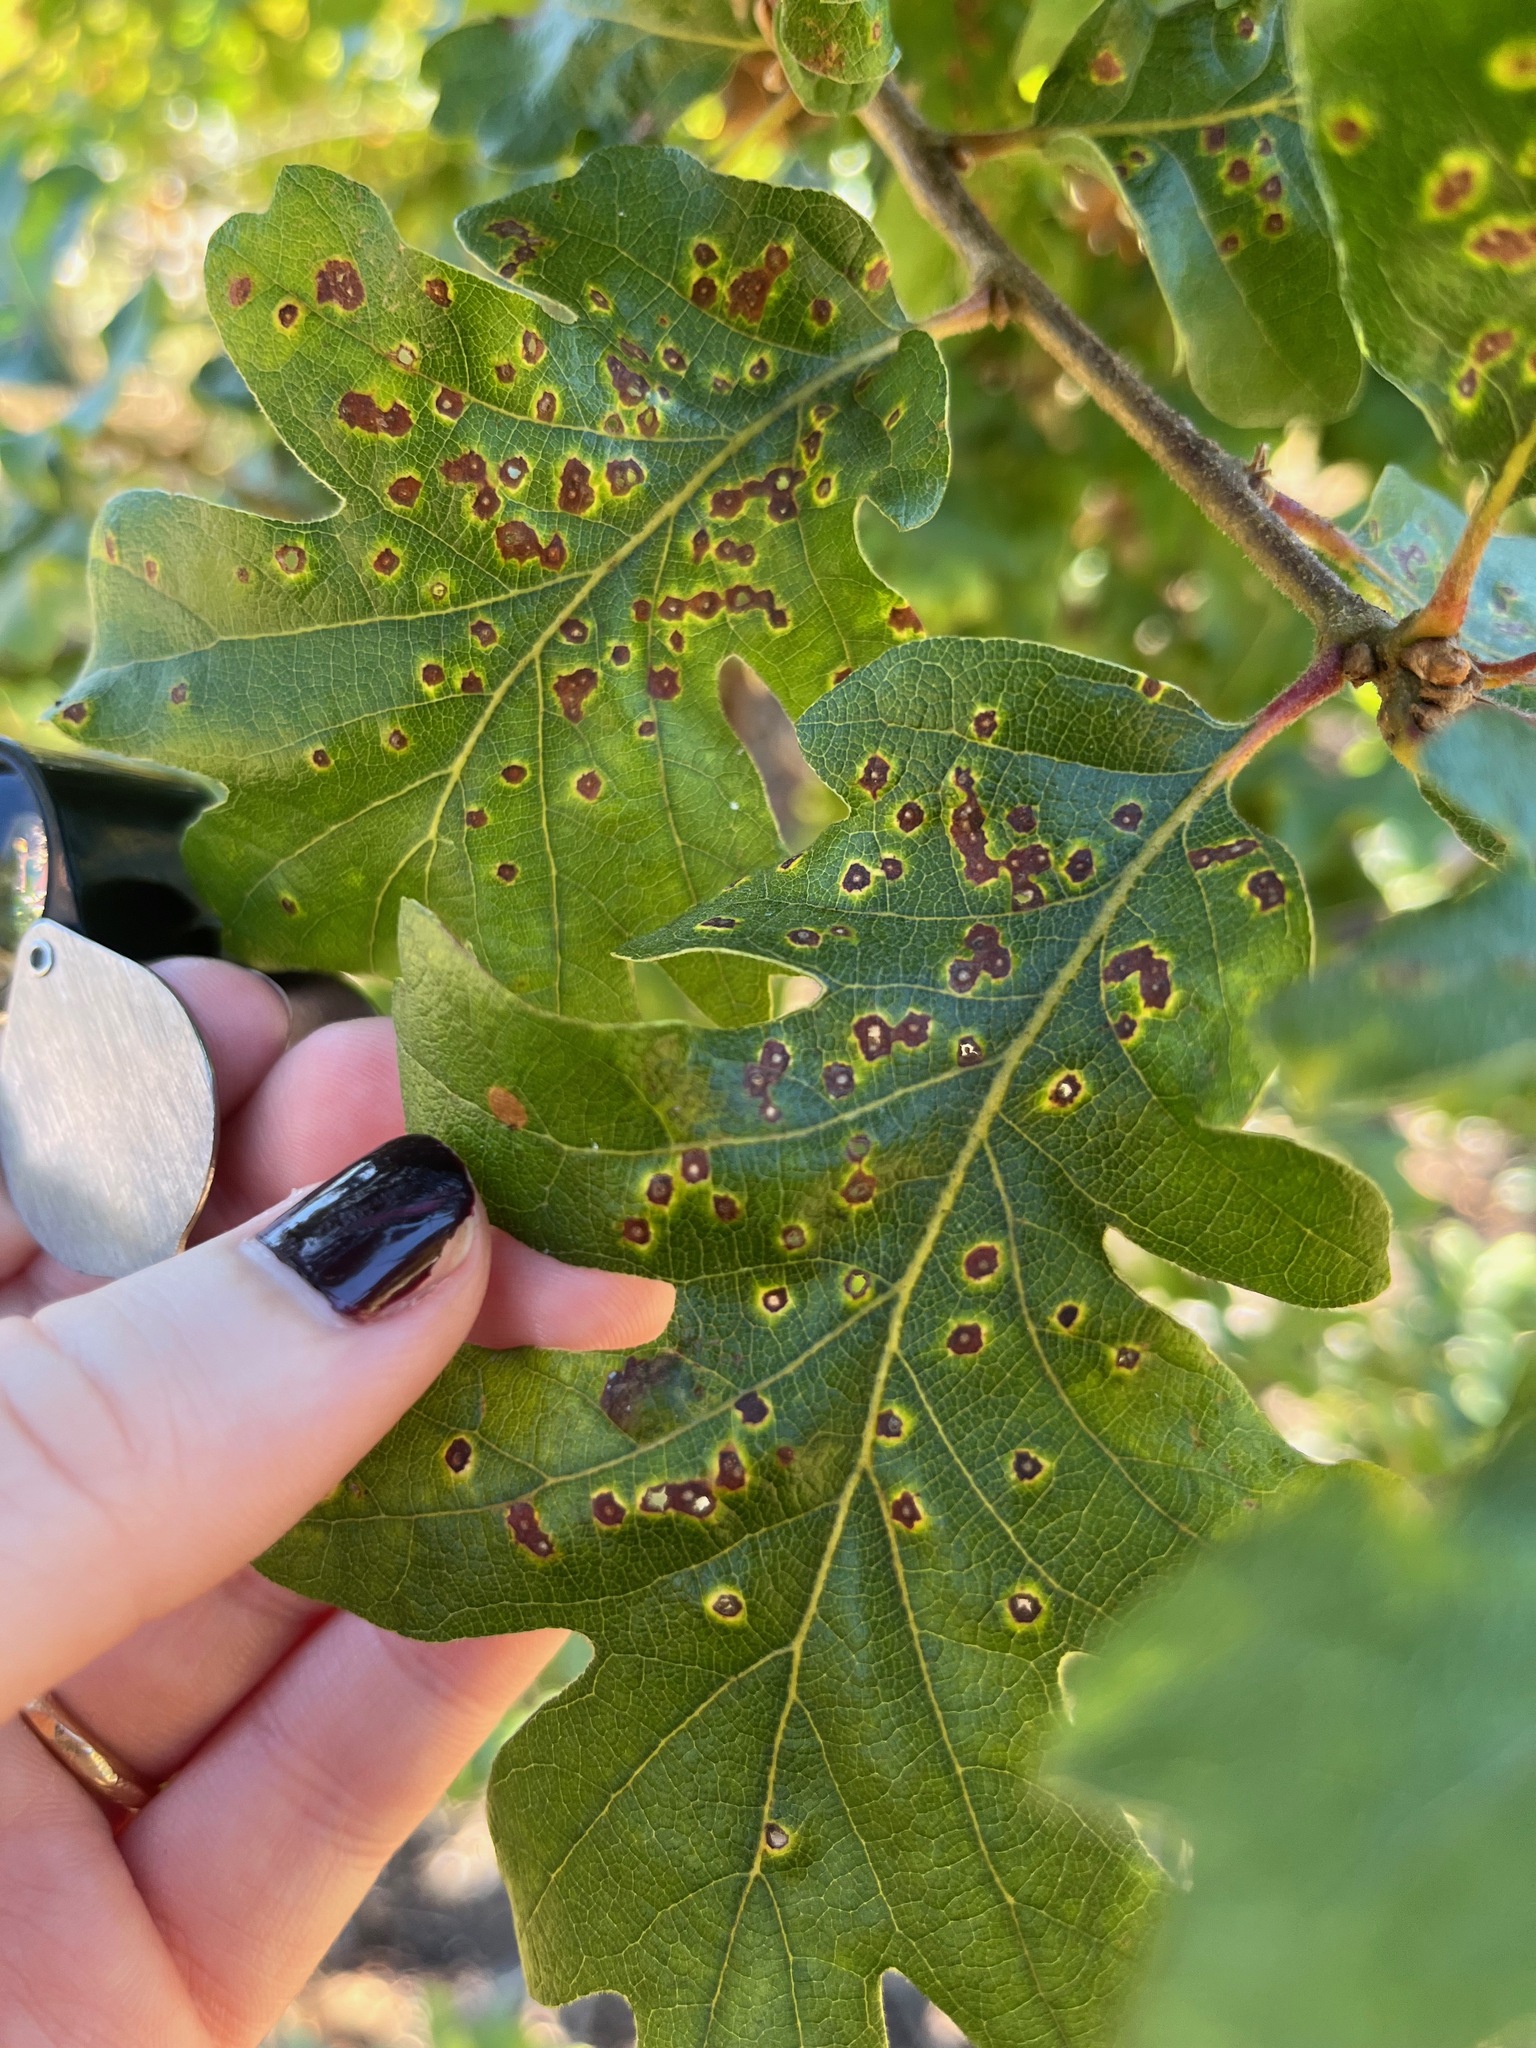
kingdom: Animalia
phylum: Arthropoda
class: Insecta
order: Hymenoptera
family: Cynipidae
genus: Neuroterus
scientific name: Neuroterus saltarius
